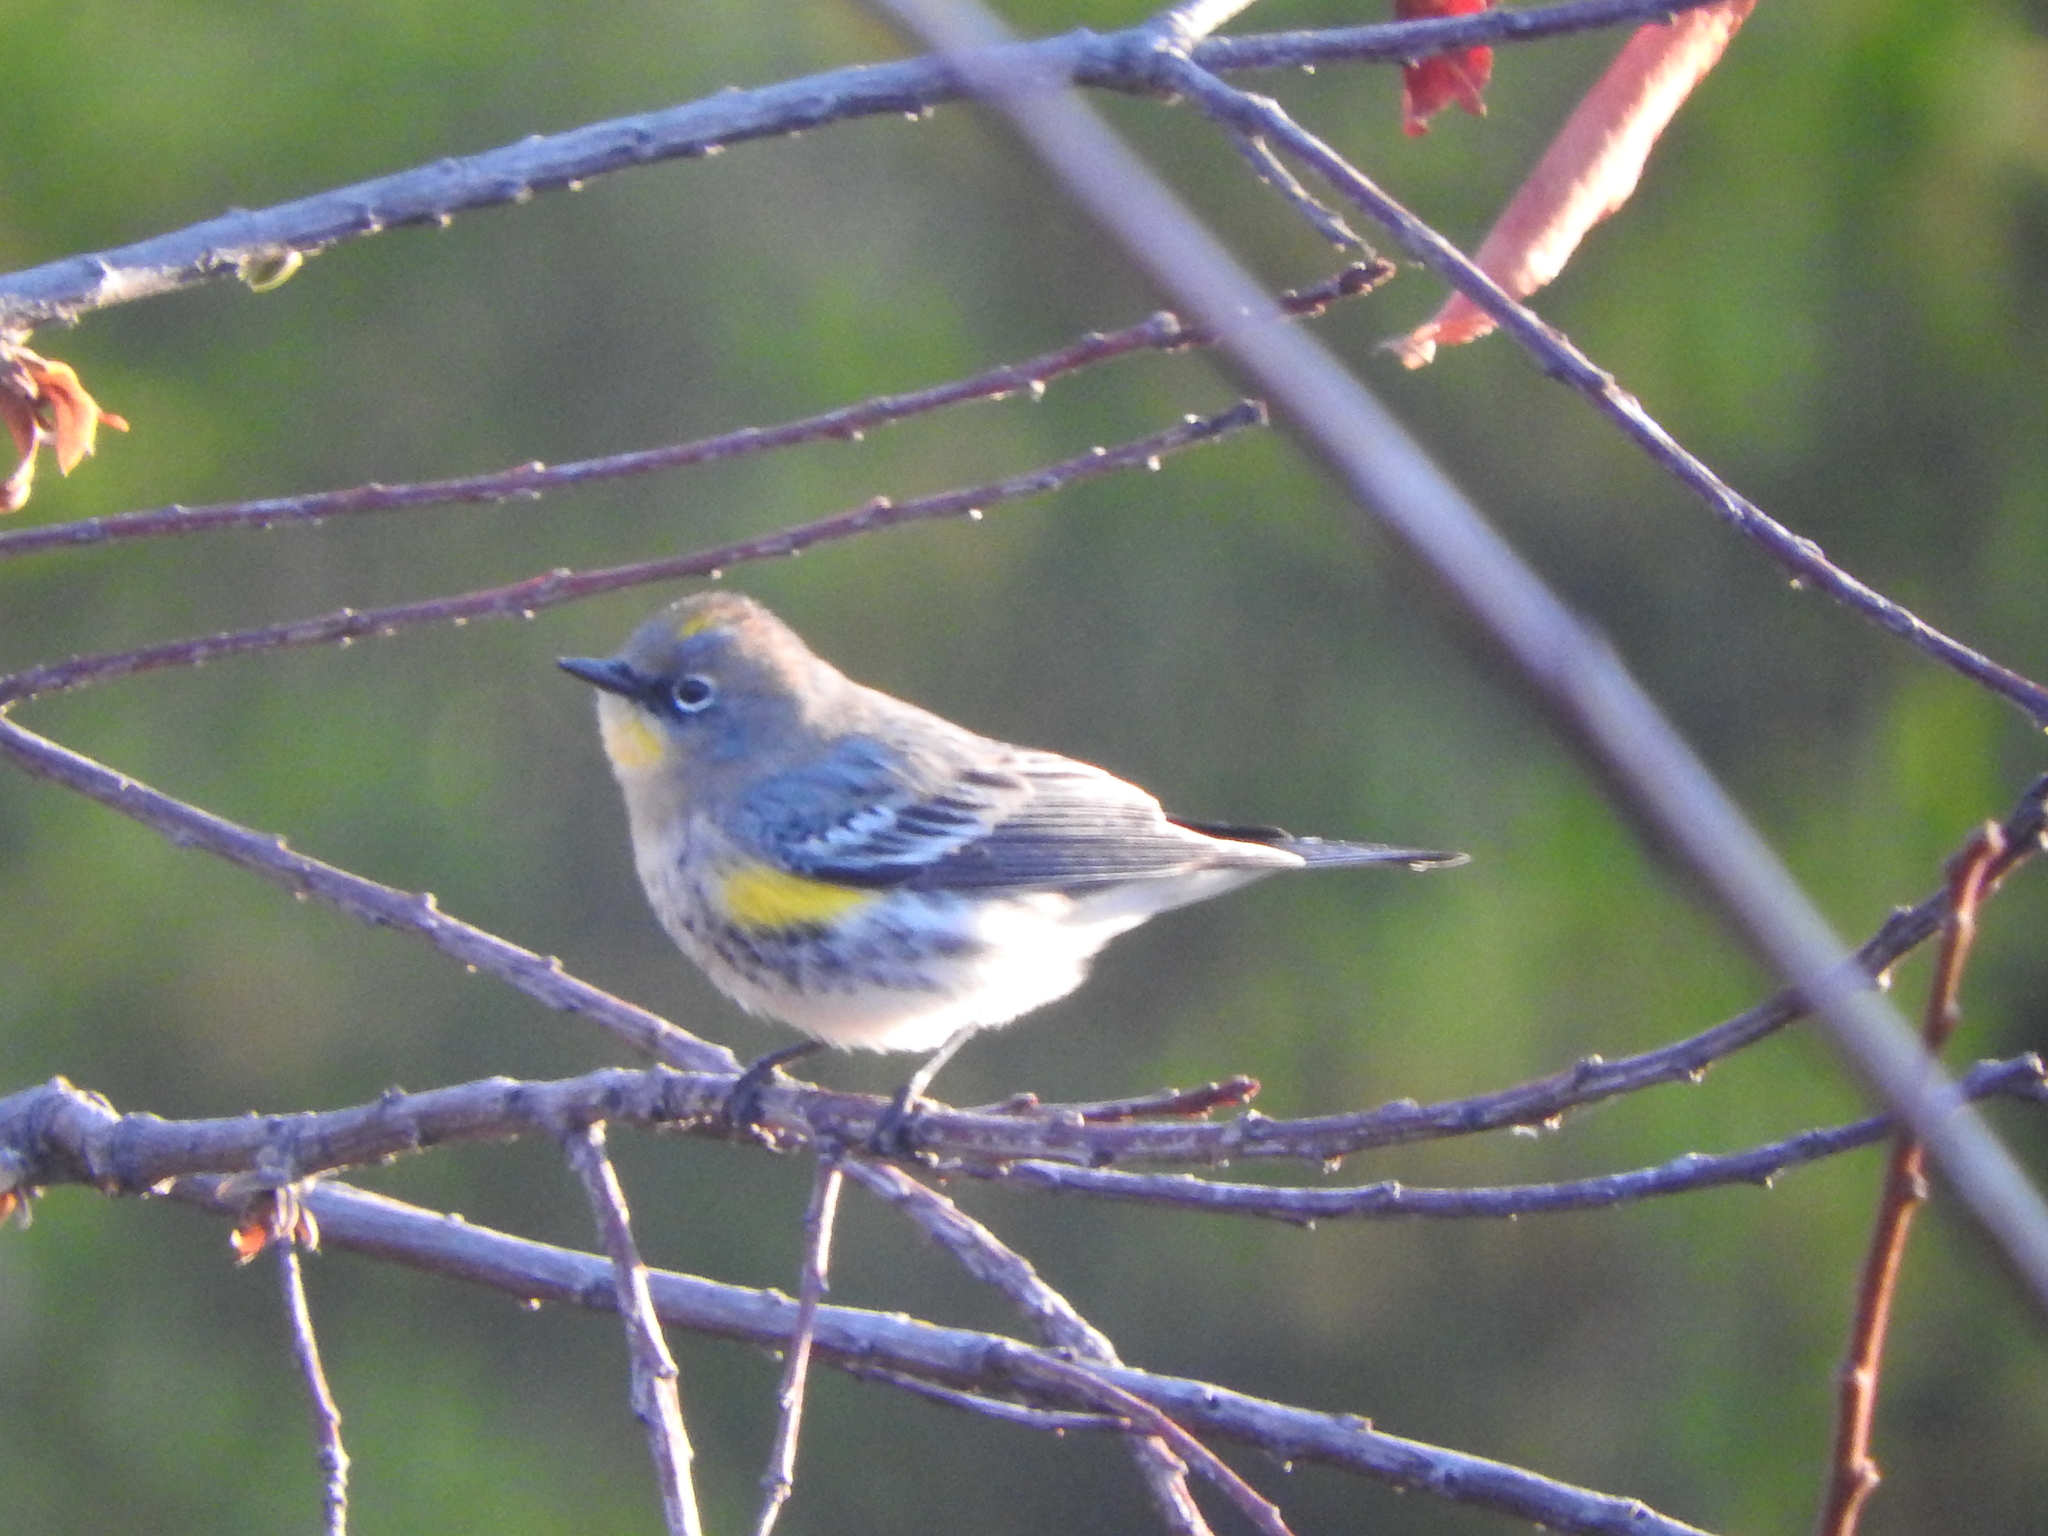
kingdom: Animalia
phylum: Chordata
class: Aves
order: Passeriformes
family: Parulidae
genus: Setophaga
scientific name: Setophaga coronata
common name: Myrtle warbler
